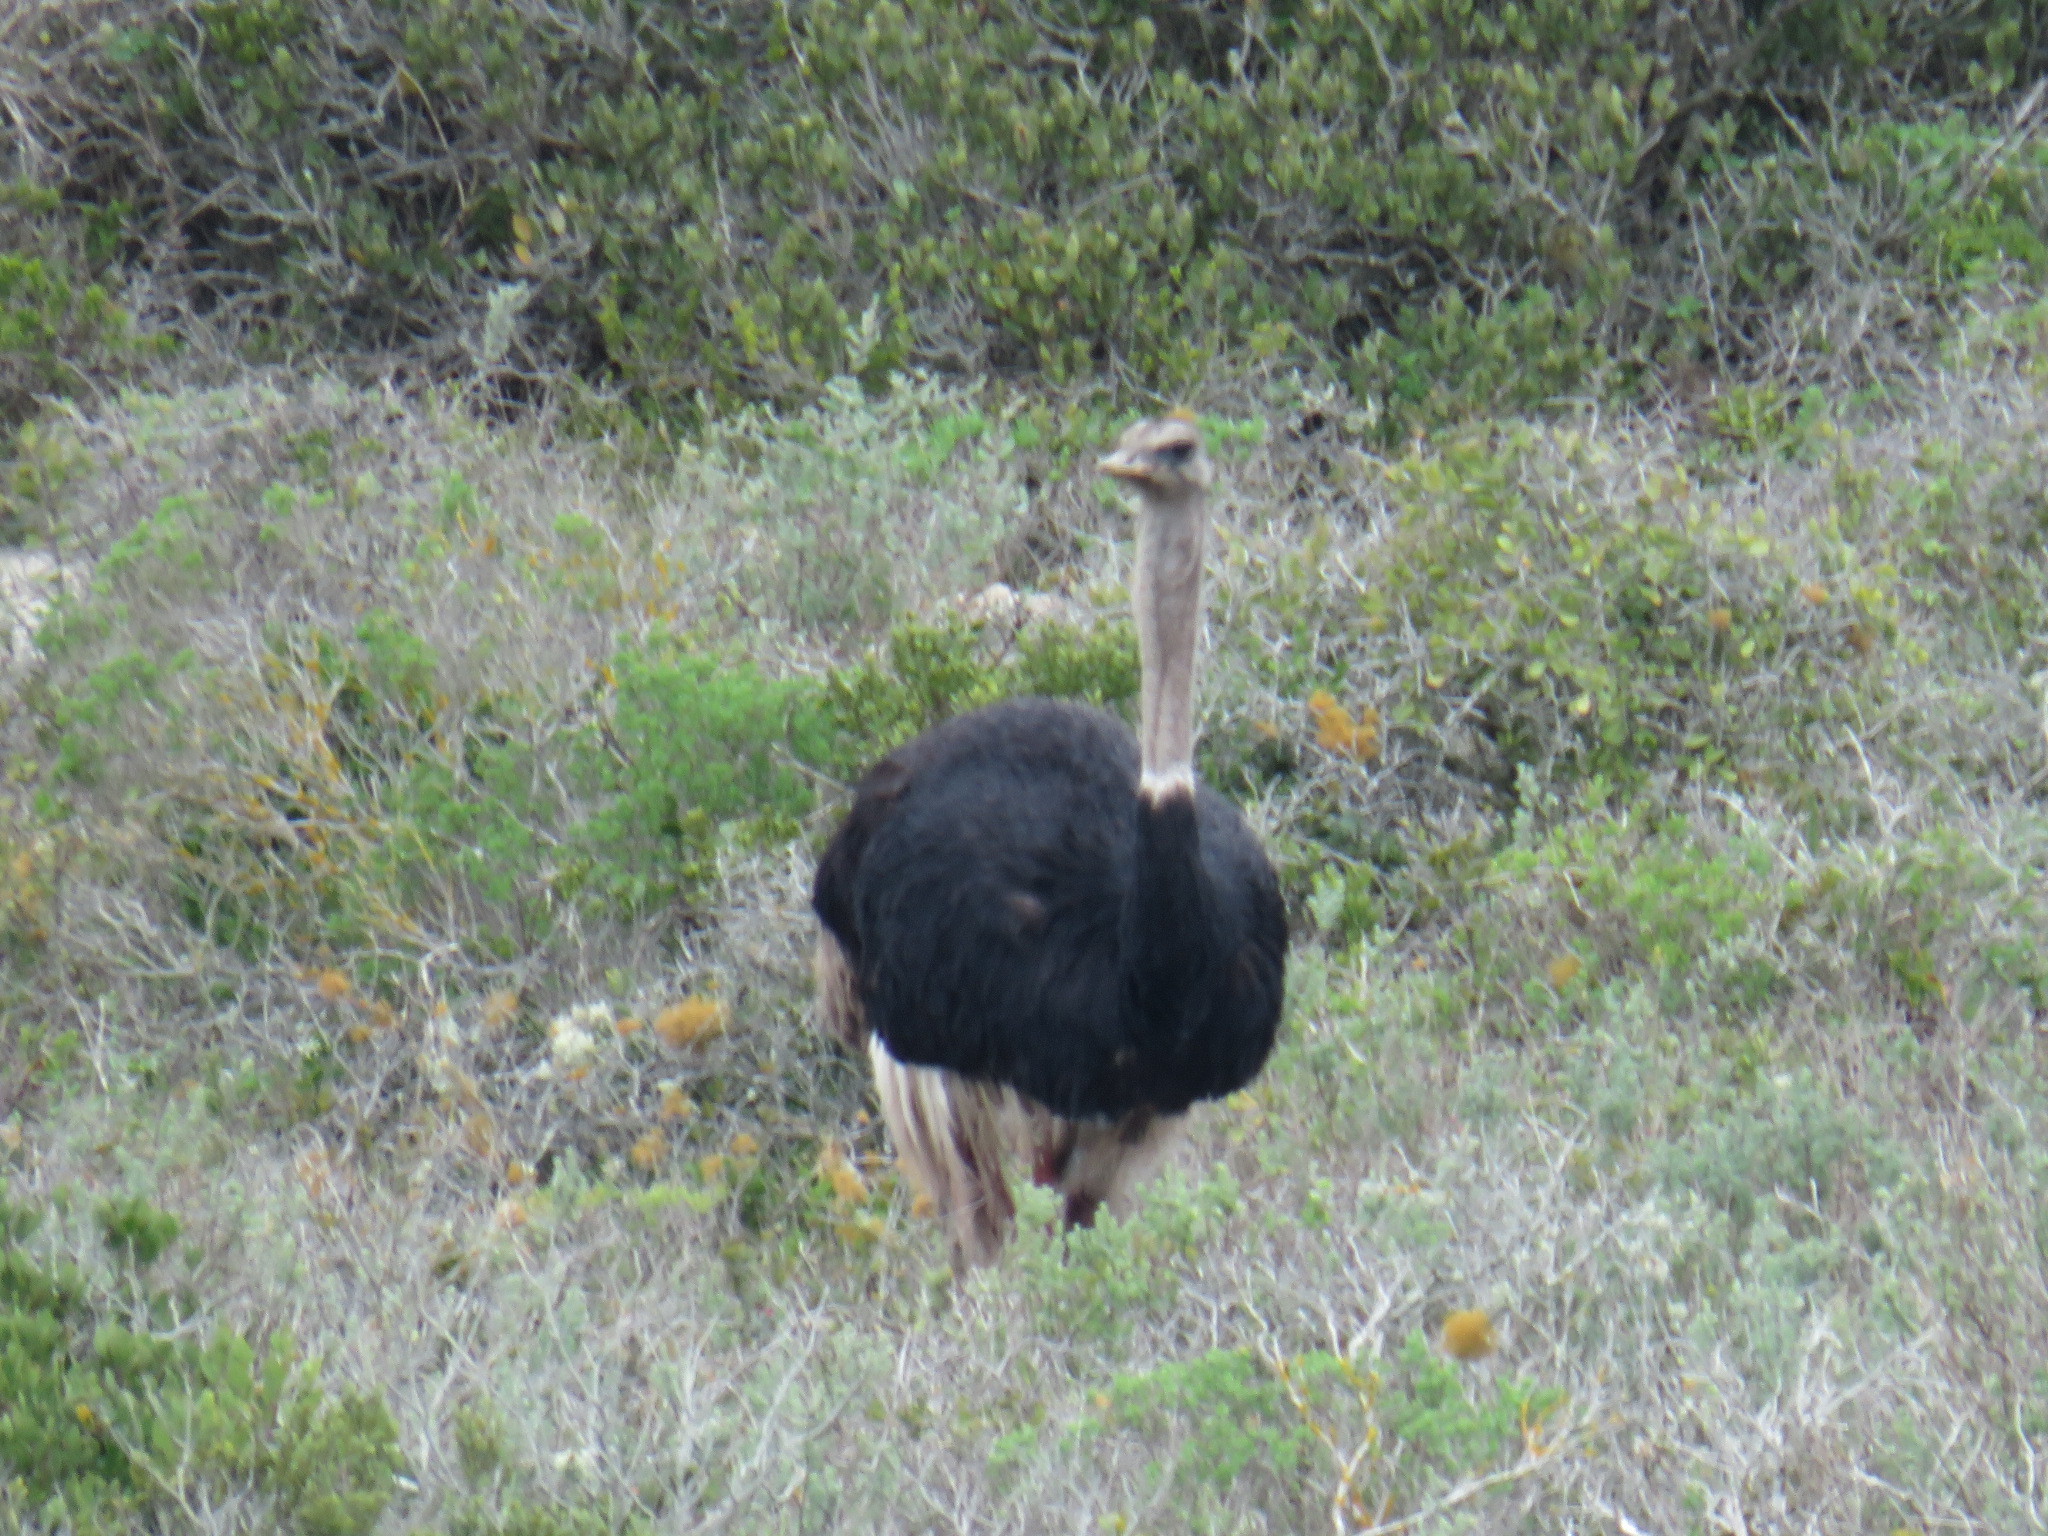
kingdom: Animalia
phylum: Chordata
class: Aves
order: Struthioniformes
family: Struthionidae
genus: Struthio
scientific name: Struthio camelus
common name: Common ostrich
